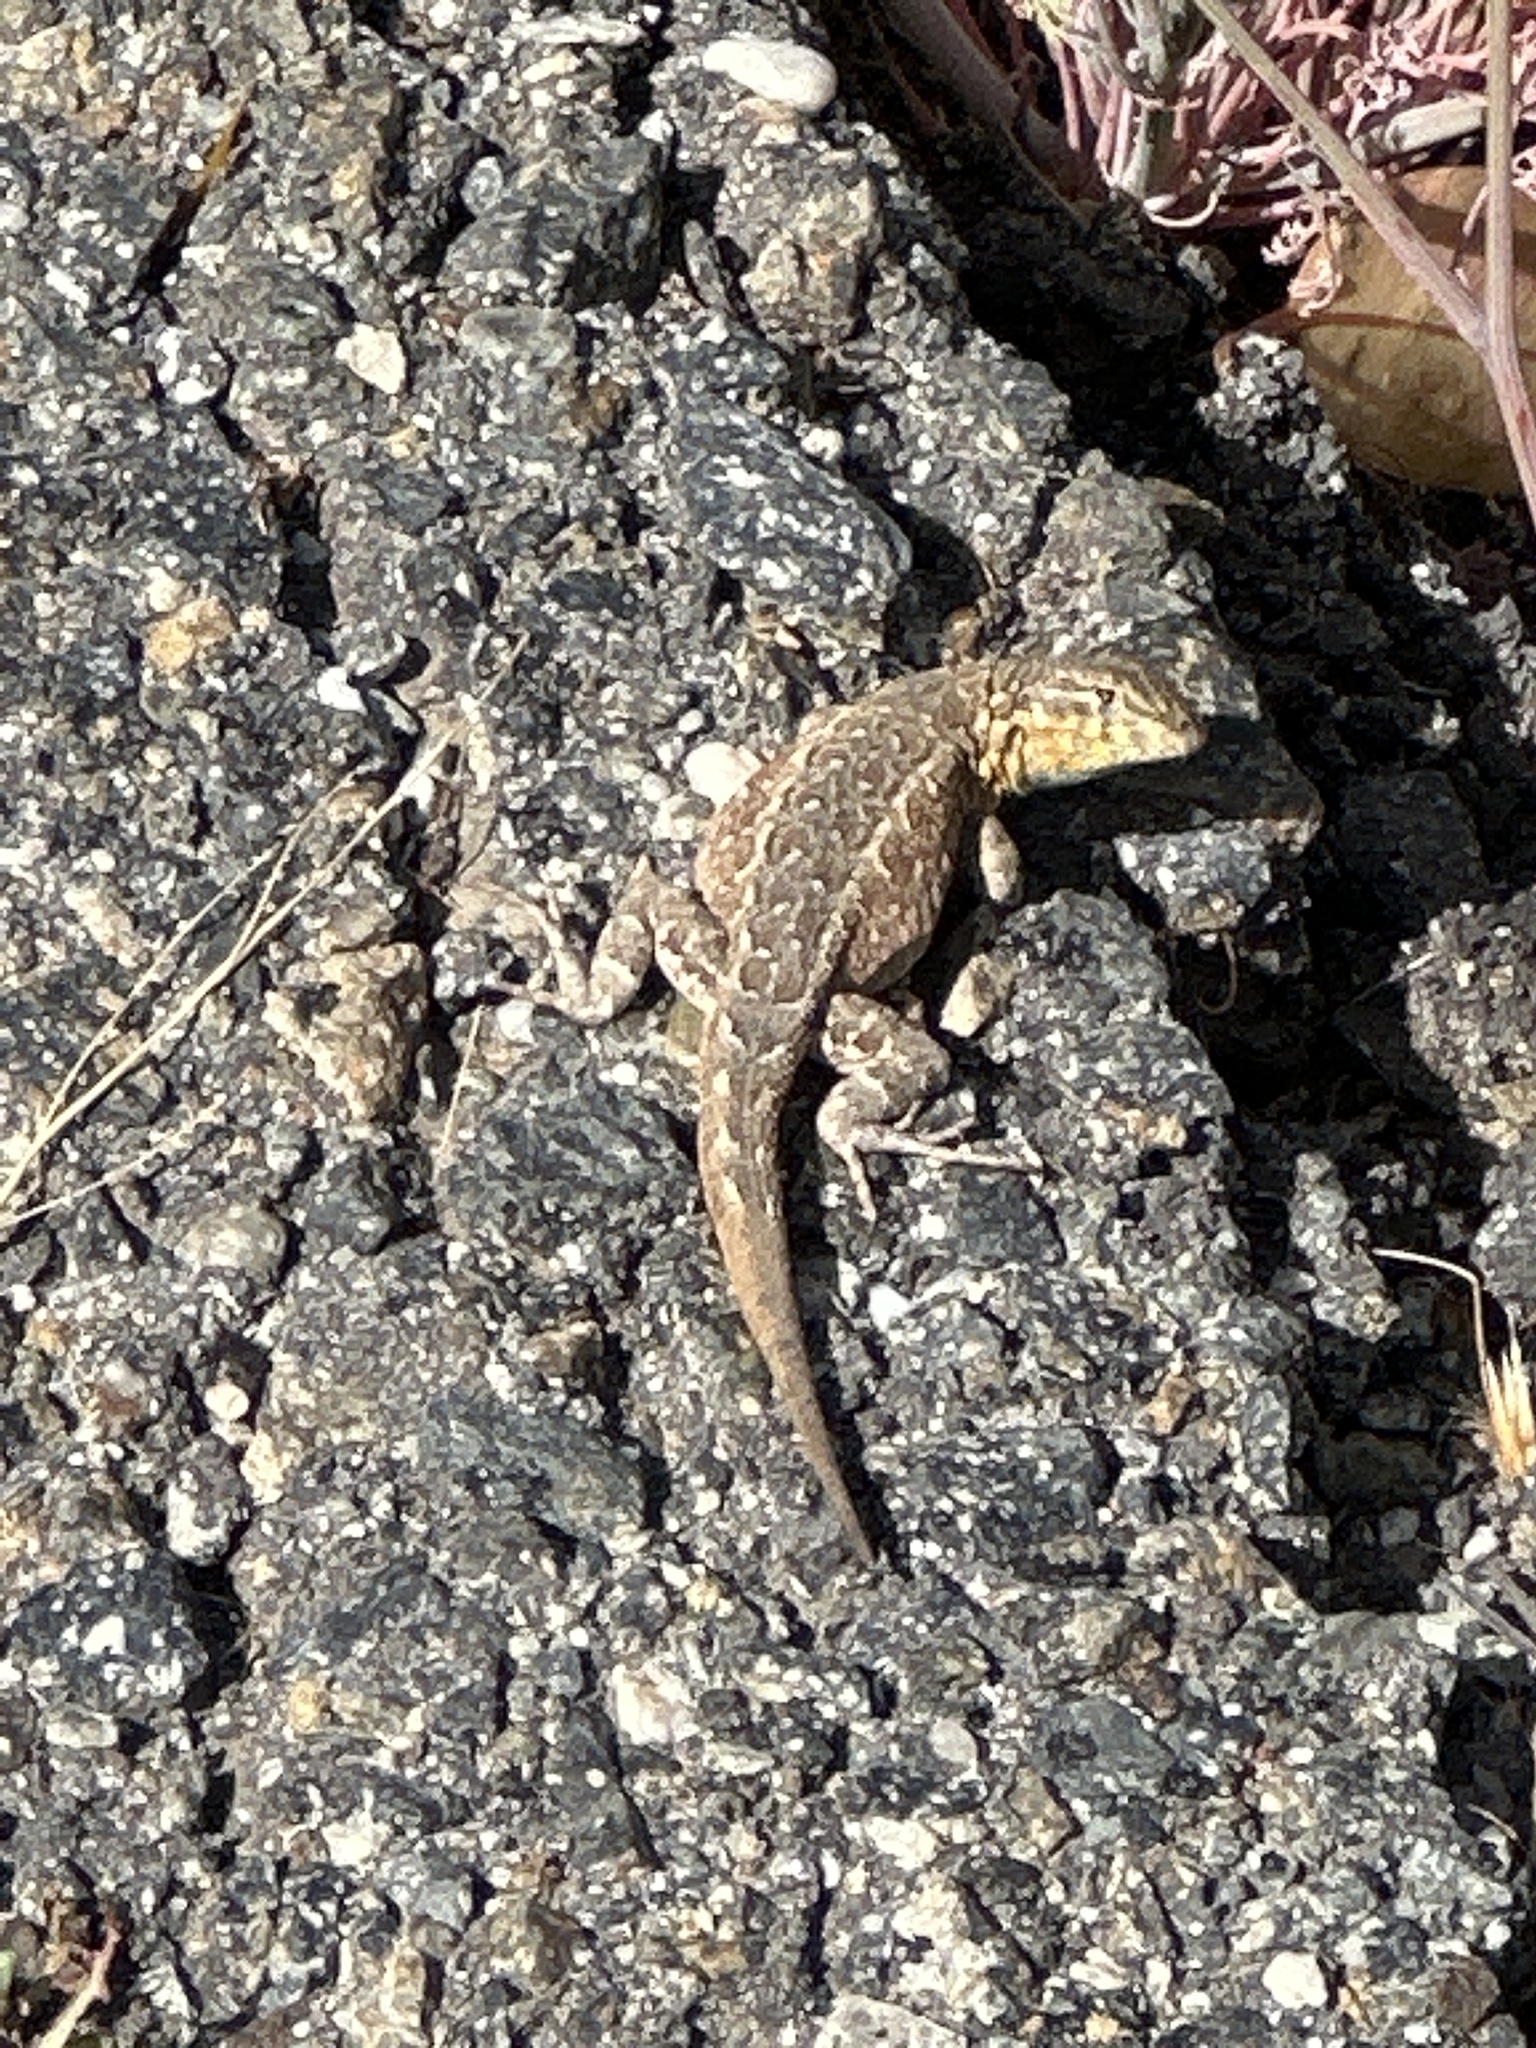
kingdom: Animalia
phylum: Chordata
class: Squamata
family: Phrynosomatidae
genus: Uta
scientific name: Uta stansburiana
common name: Side-blotched lizard
